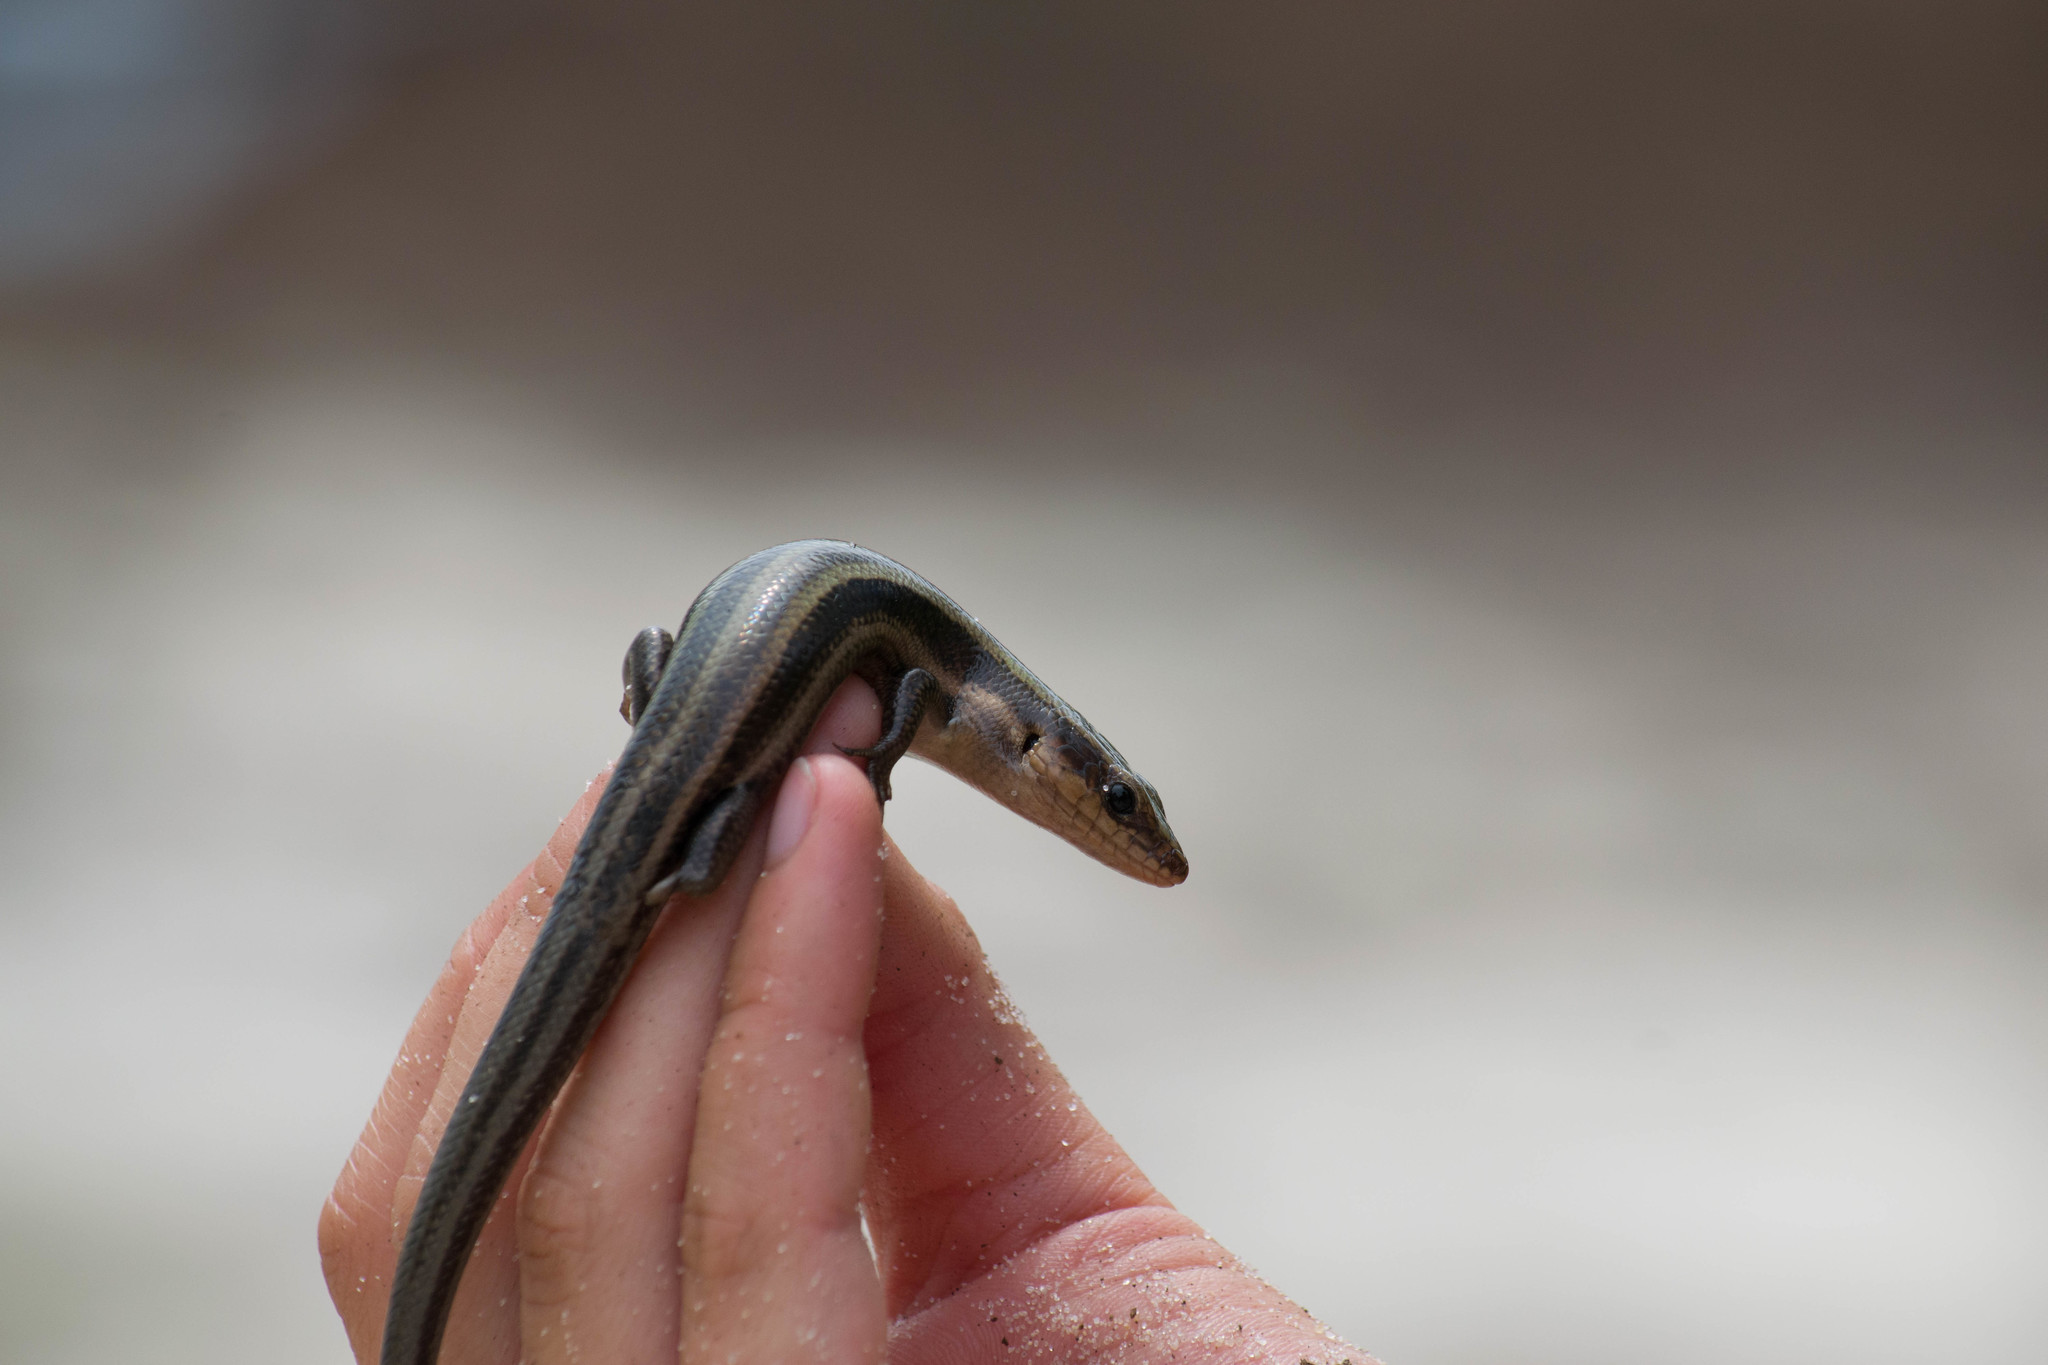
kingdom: Animalia
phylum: Chordata
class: Squamata
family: Scincidae
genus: Plestiodon
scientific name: Plestiodon fasciatus
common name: Five-lined skink
